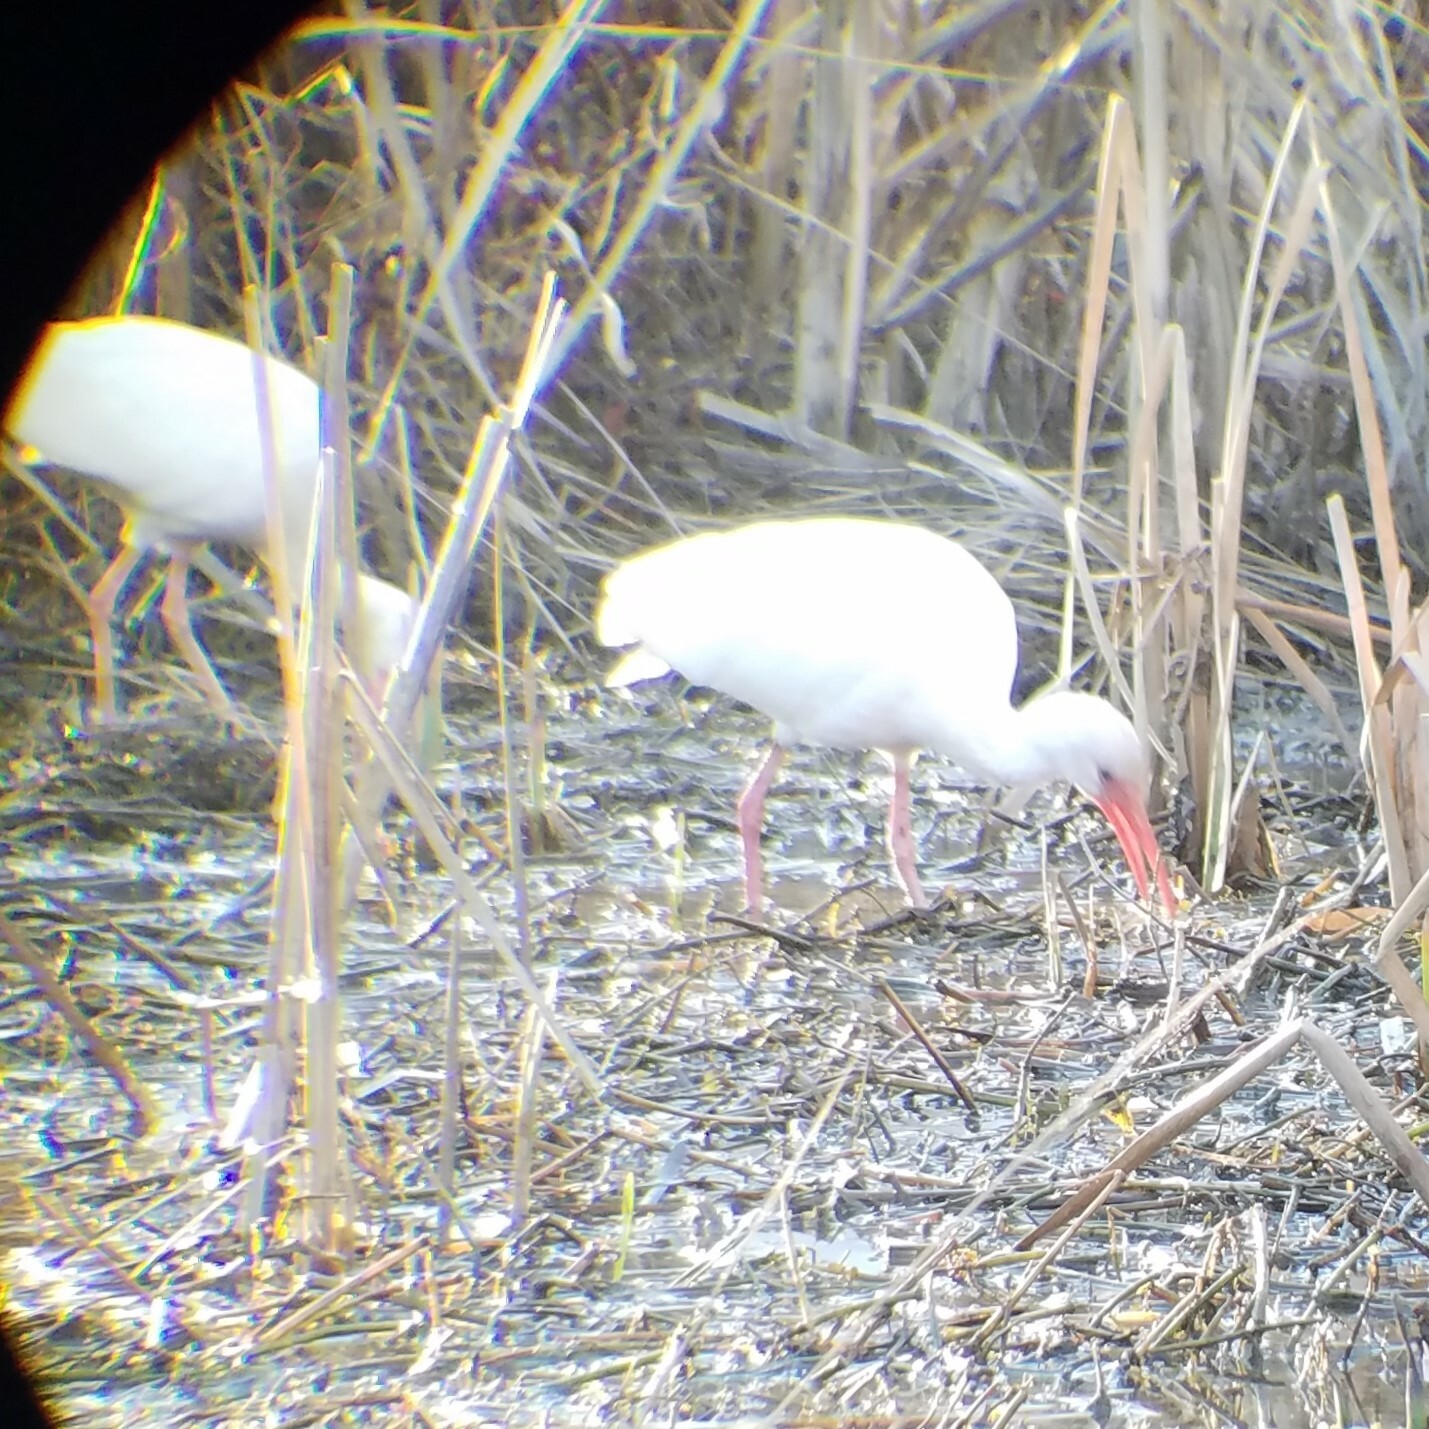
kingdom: Animalia
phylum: Chordata
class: Aves
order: Pelecaniformes
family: Threskiornithidae
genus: Eudocimus
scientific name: Eudocimus albus
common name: White ibis
